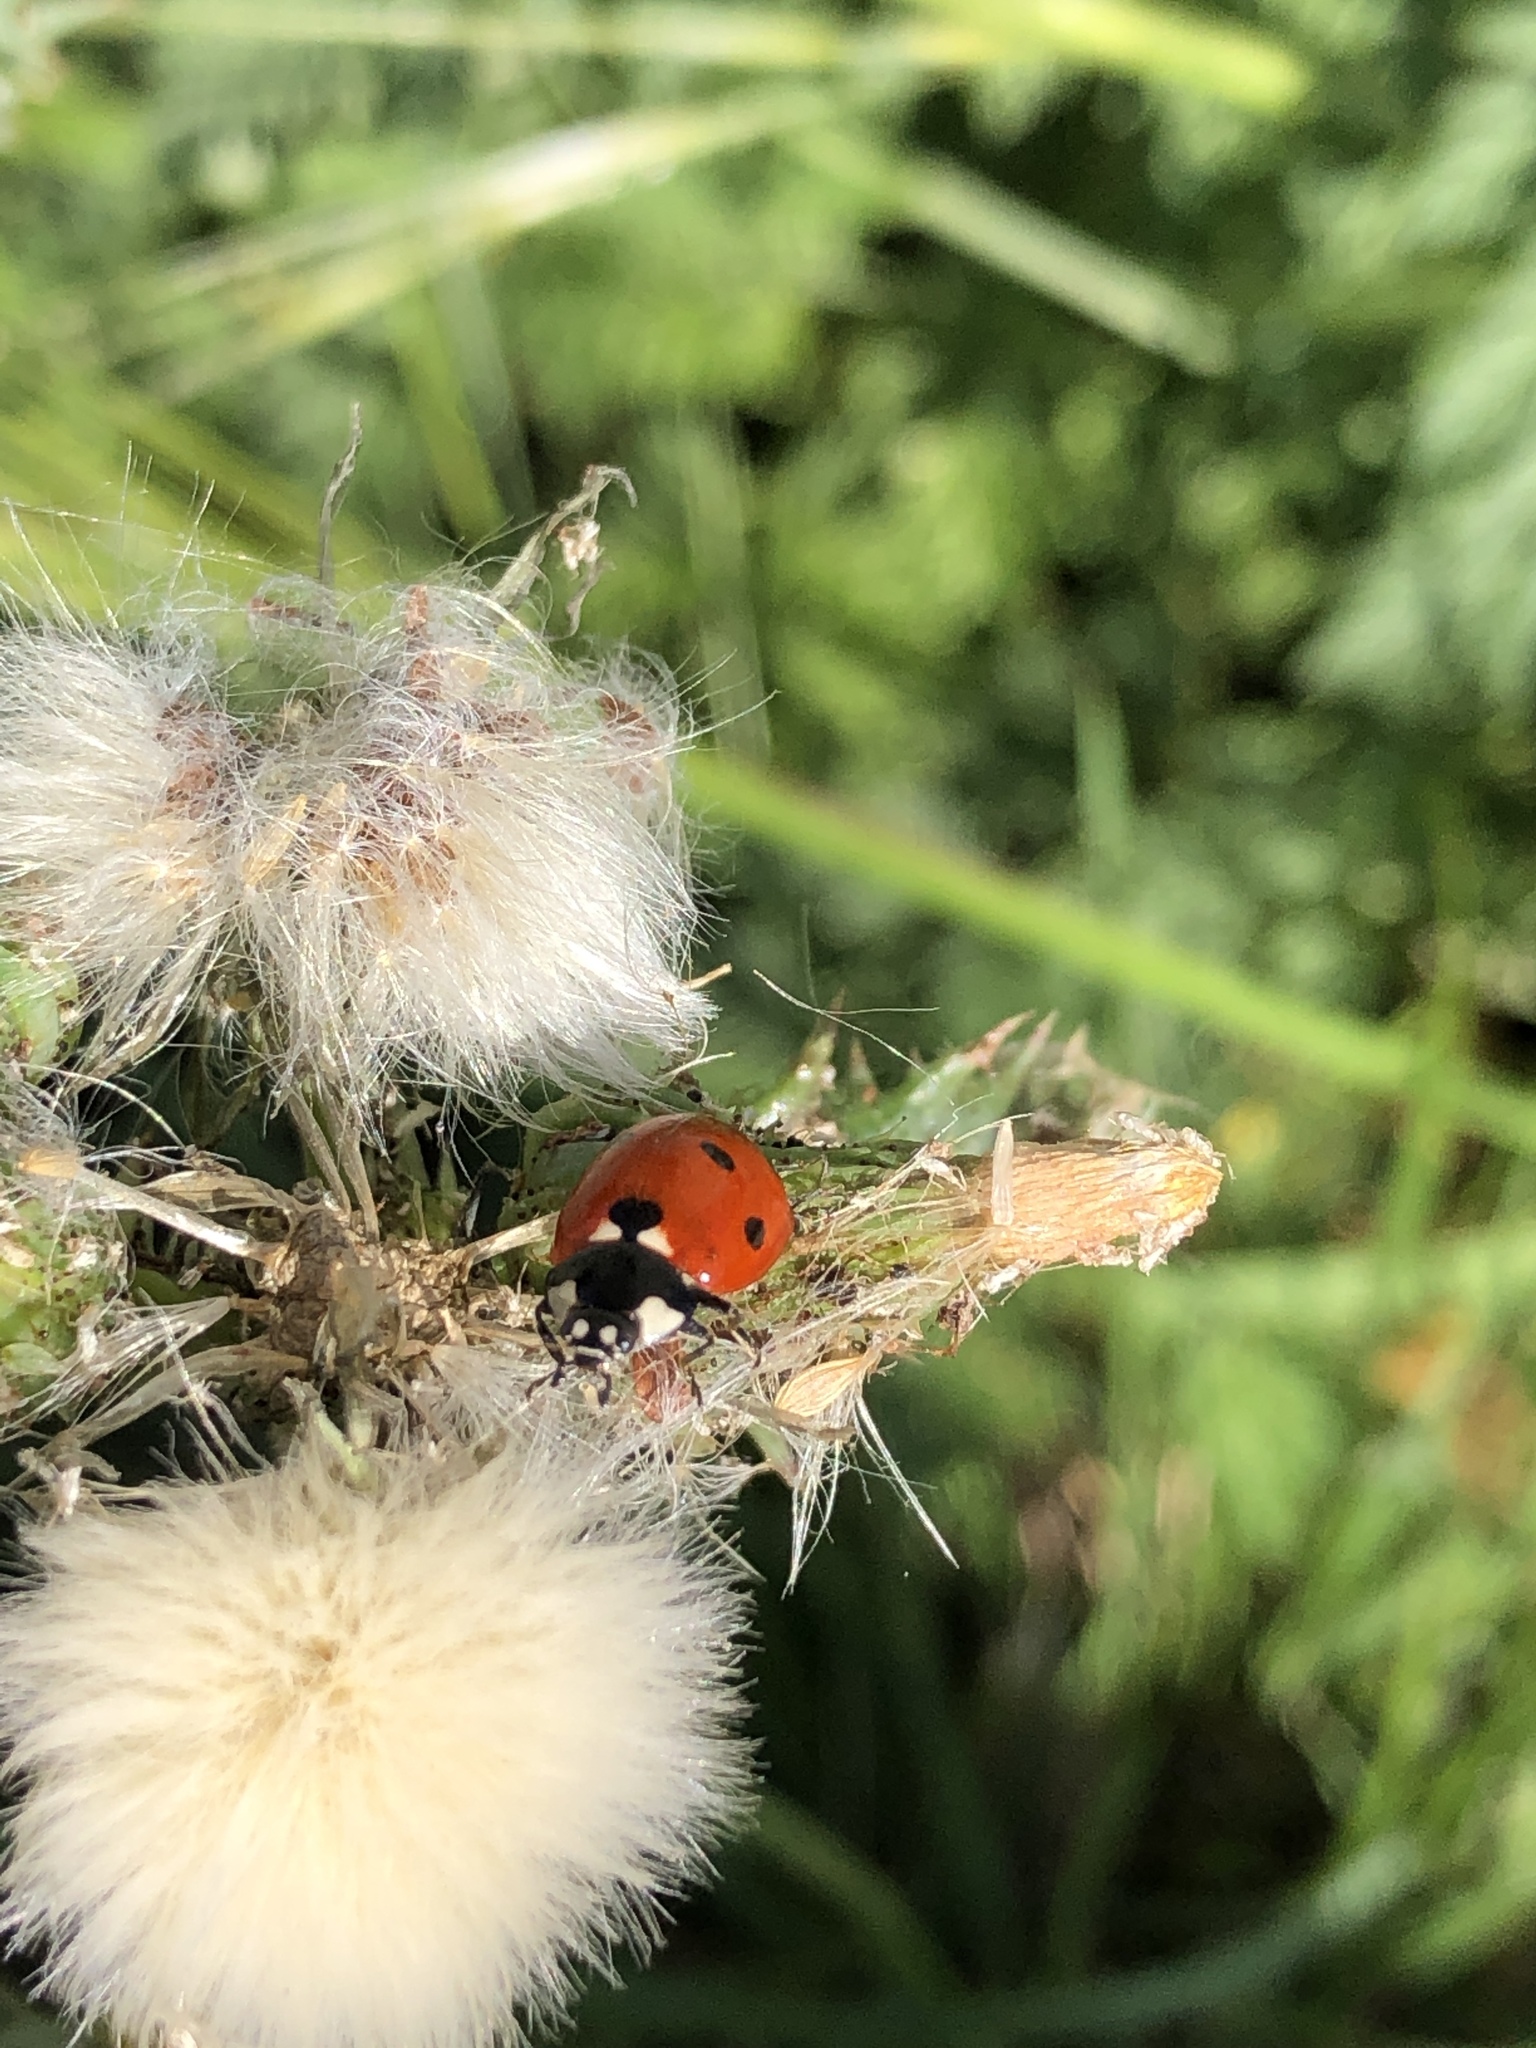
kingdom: Animalia
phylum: Arthropoda
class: Insecta
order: Coleoptera
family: Coccinellidae
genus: Coccinella
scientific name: Coccinella septempunctata
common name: Sevenspotted lady beetle
